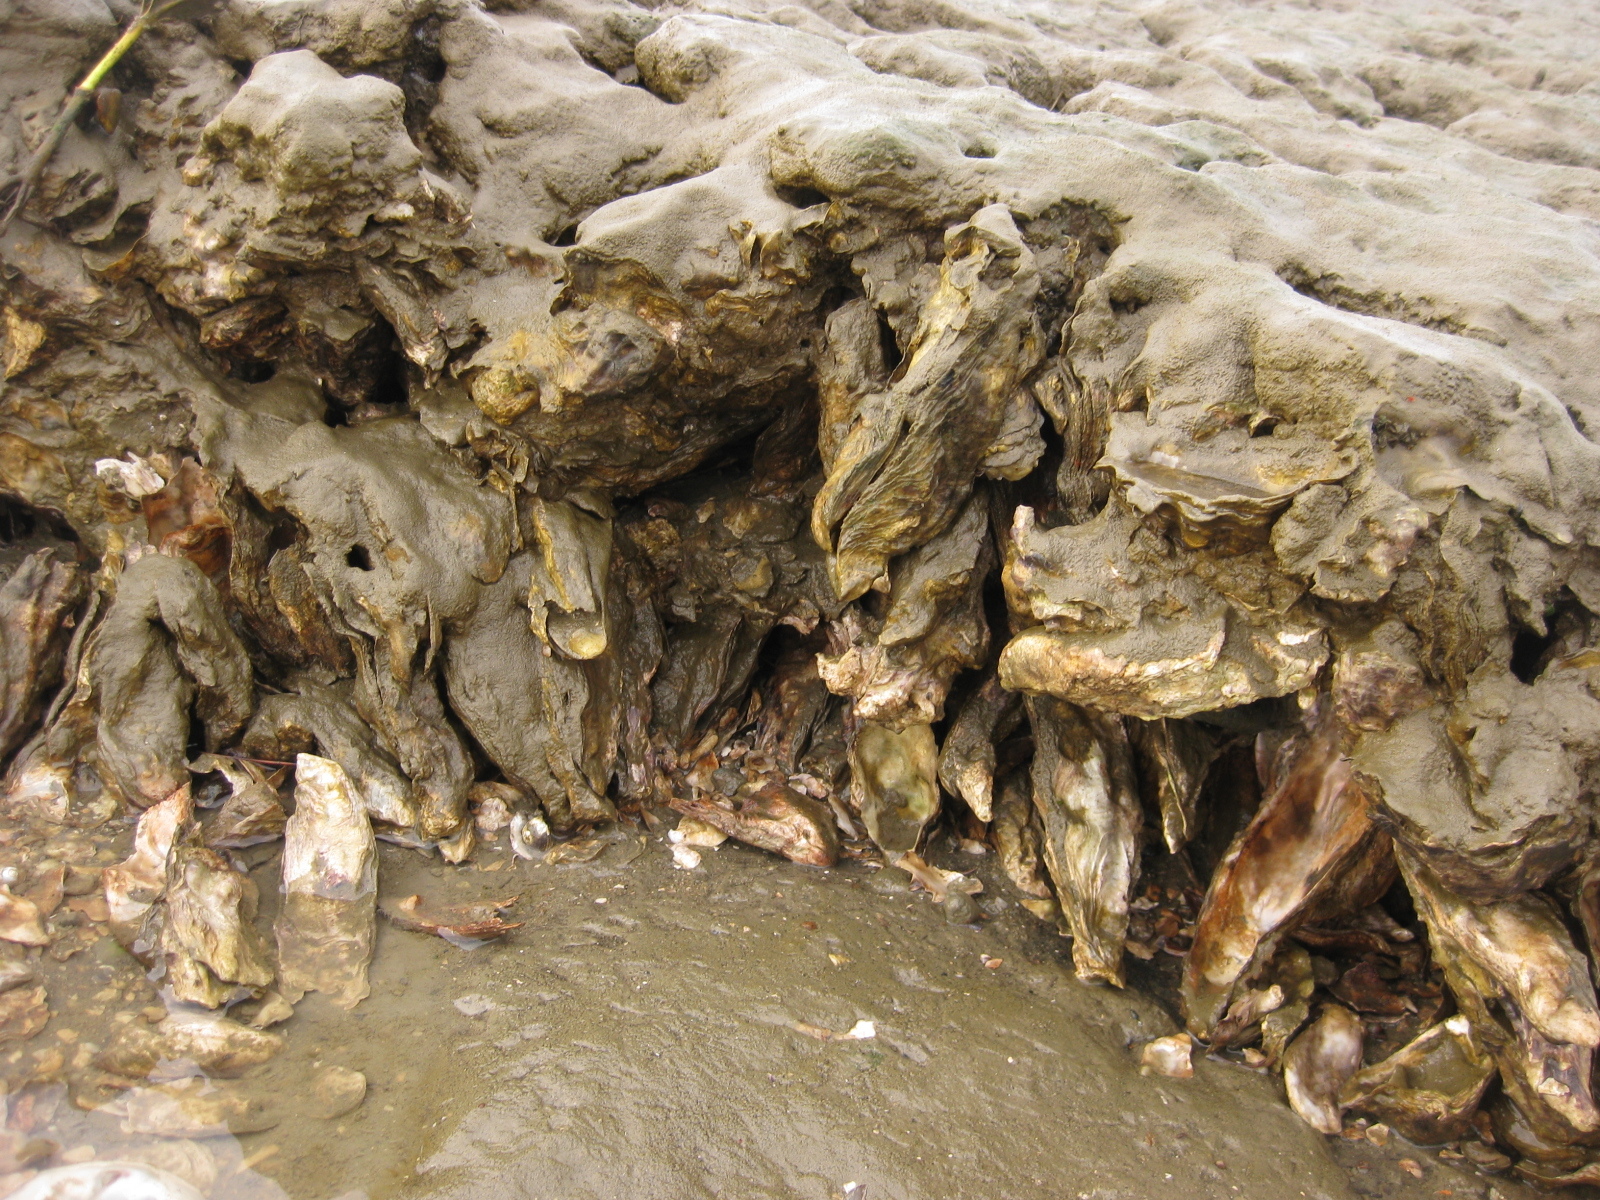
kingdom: Animalia
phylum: Mollusca
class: Bivalvia
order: Ostreida
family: Ostreidae
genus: Magallana
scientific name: Magallana gigas
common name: Pacific oyster
